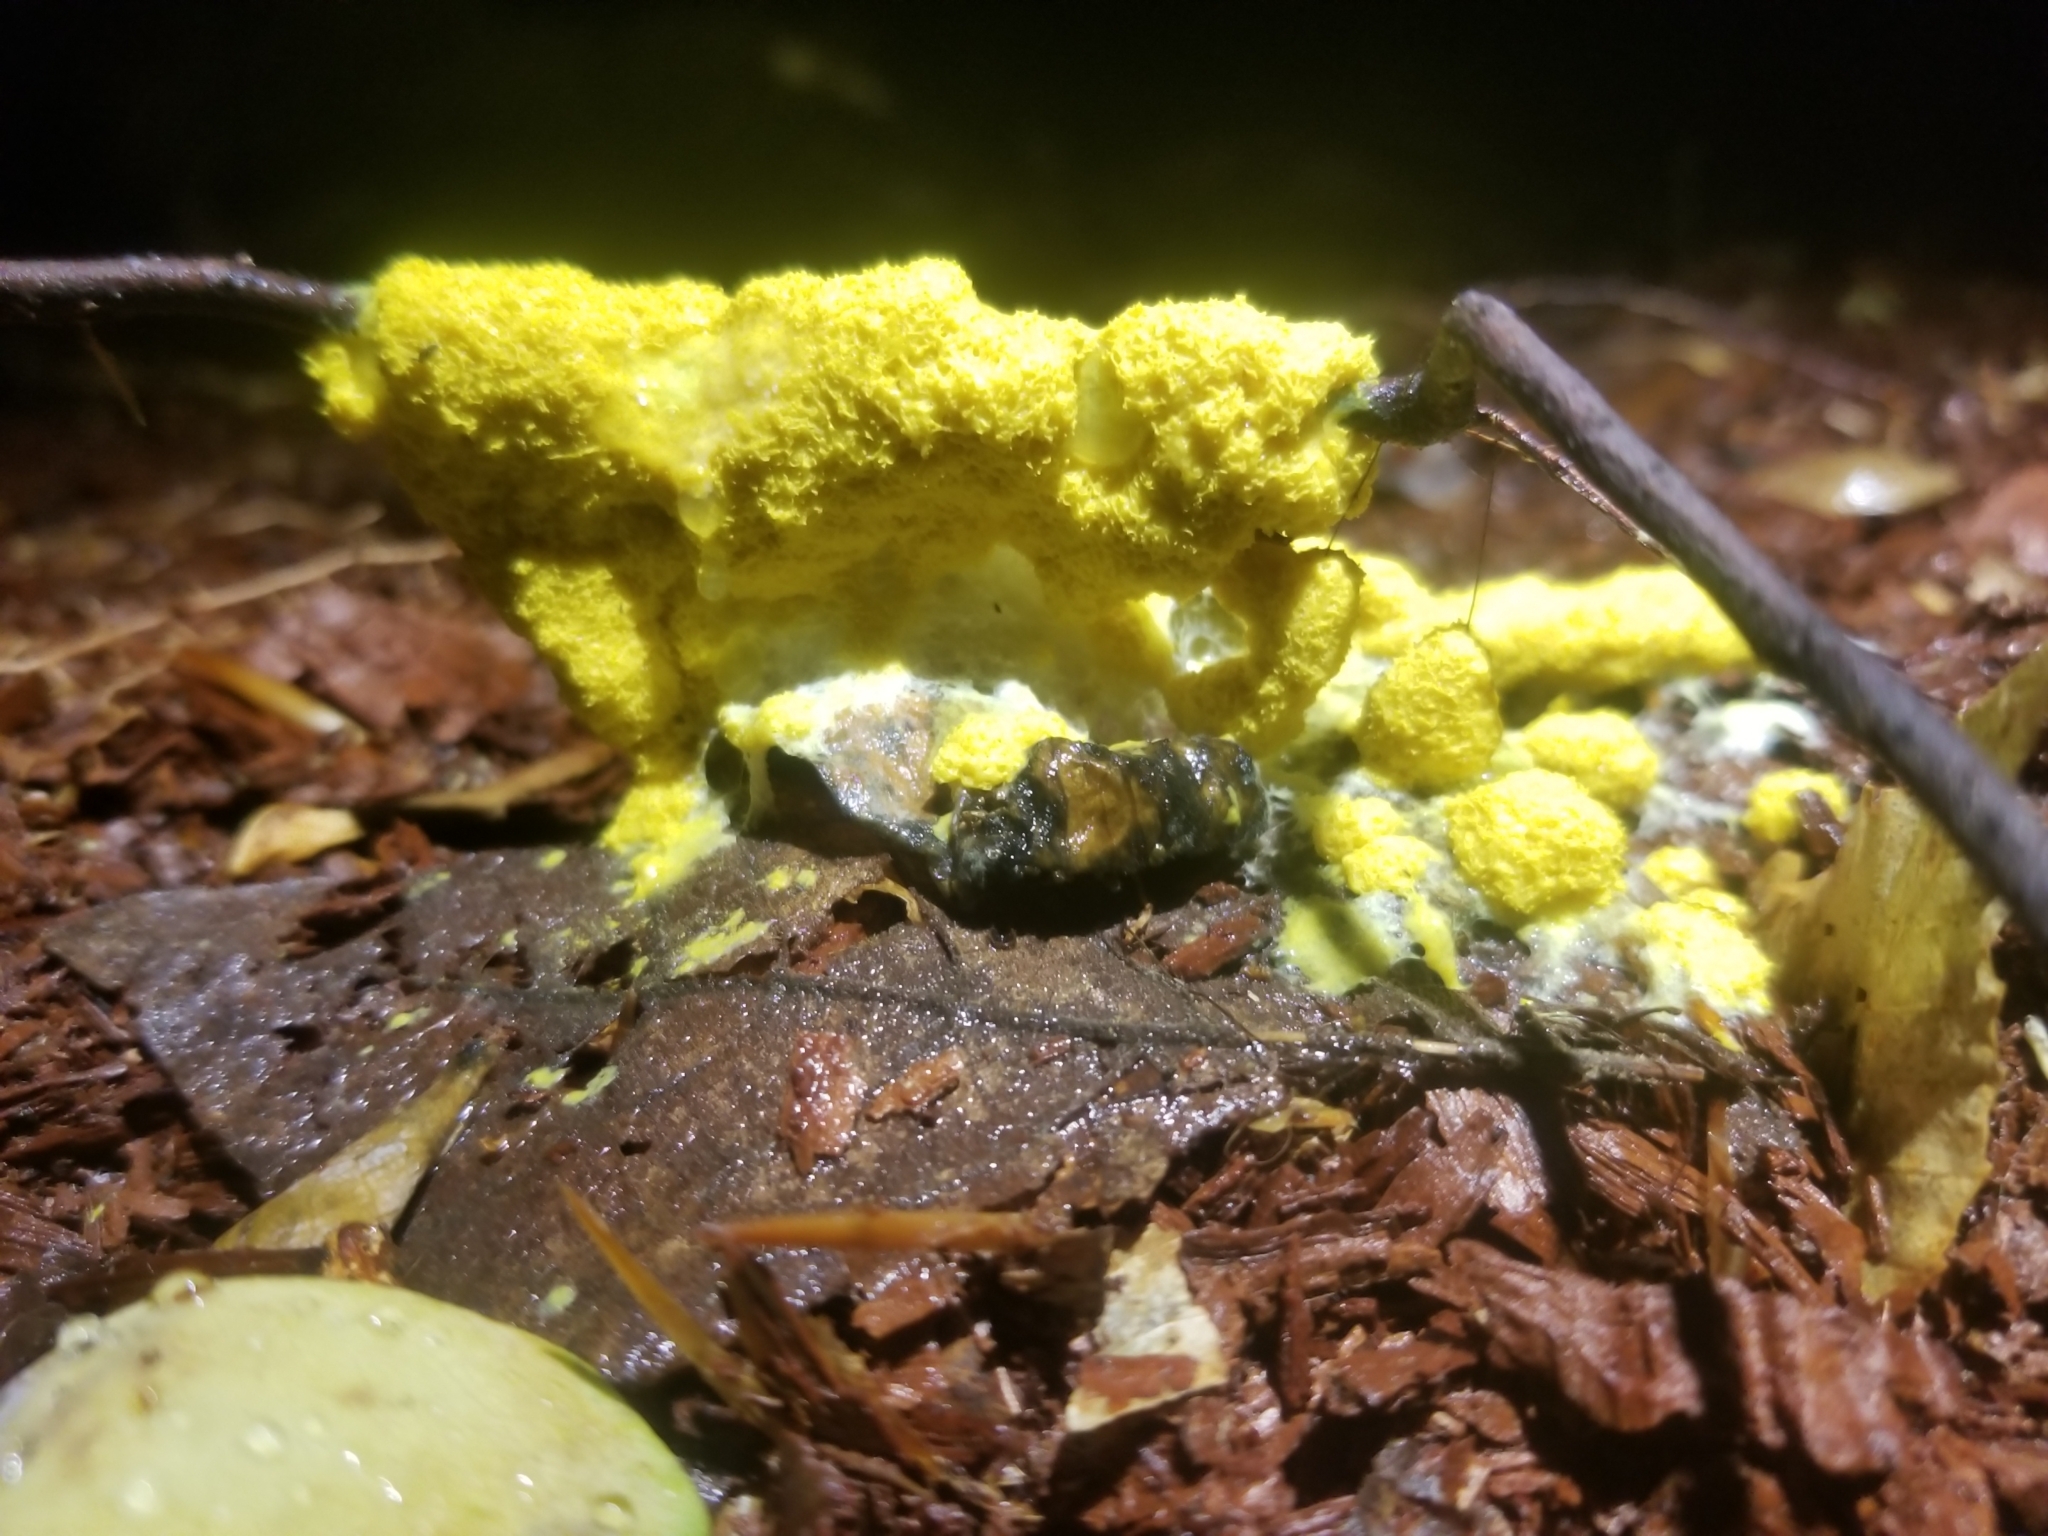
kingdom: Protozoa
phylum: Mycetozoa
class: Myxomycetes
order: Physarales
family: Physaraceae
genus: Fuligo
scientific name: Fuligo septica
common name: Dog vomit slime mold
